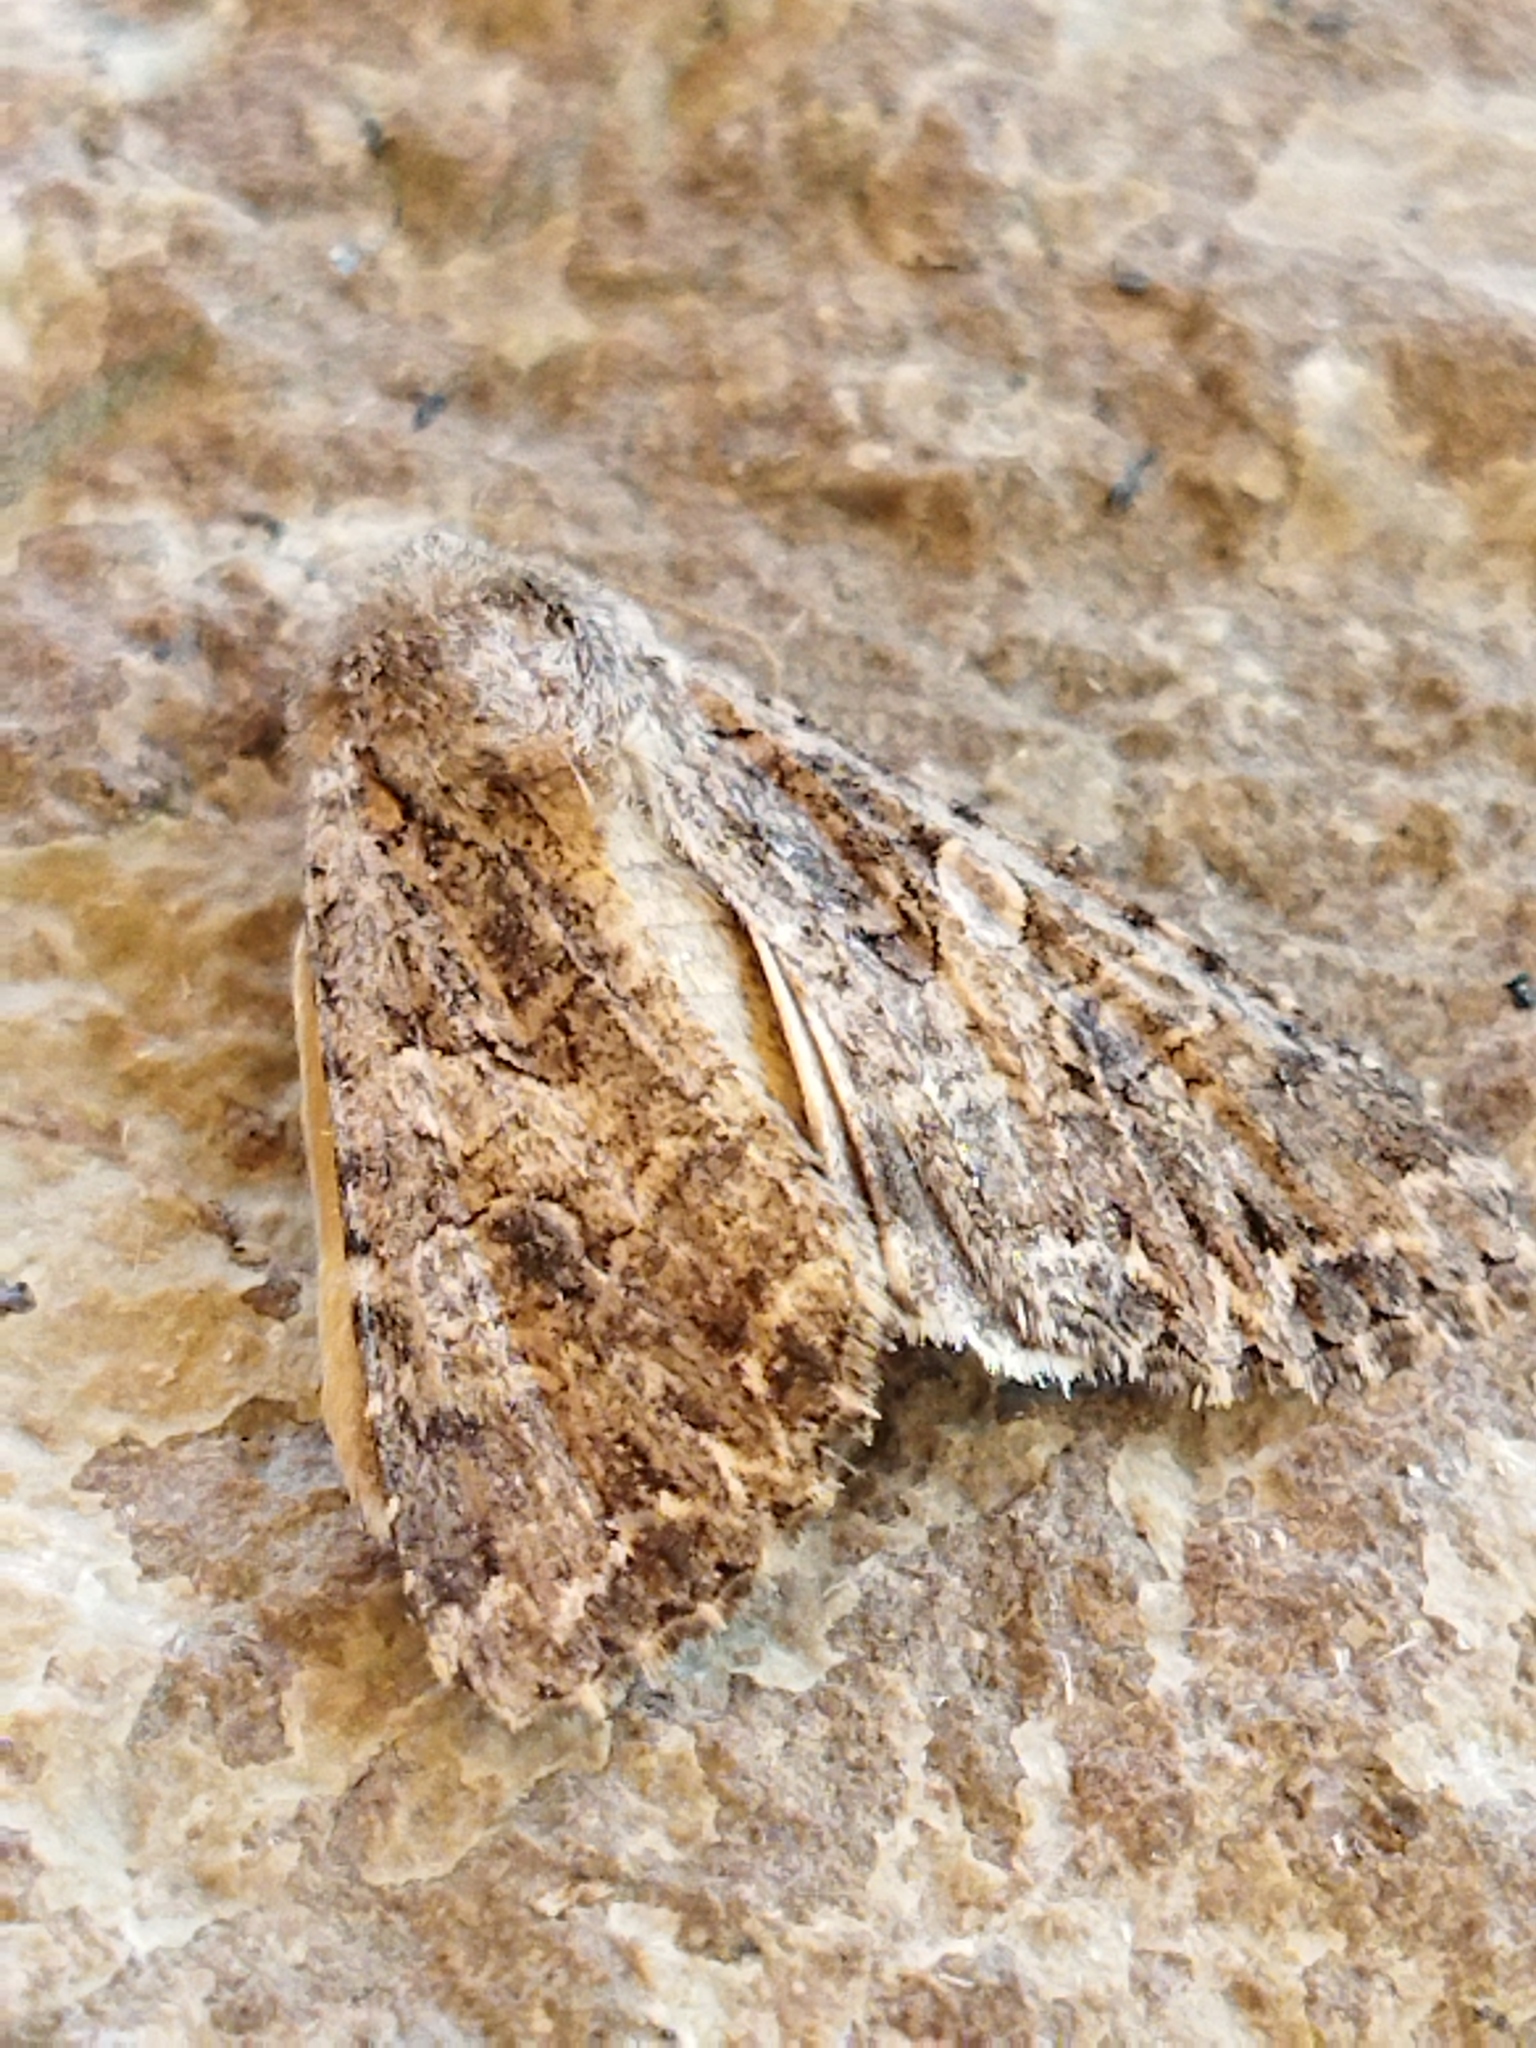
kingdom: Animalia
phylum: Arthropoda
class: Insecta
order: Lepidoptera
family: Noctuidae
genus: Anarta
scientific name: Anarta trifolii
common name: Clover cutworm moth
